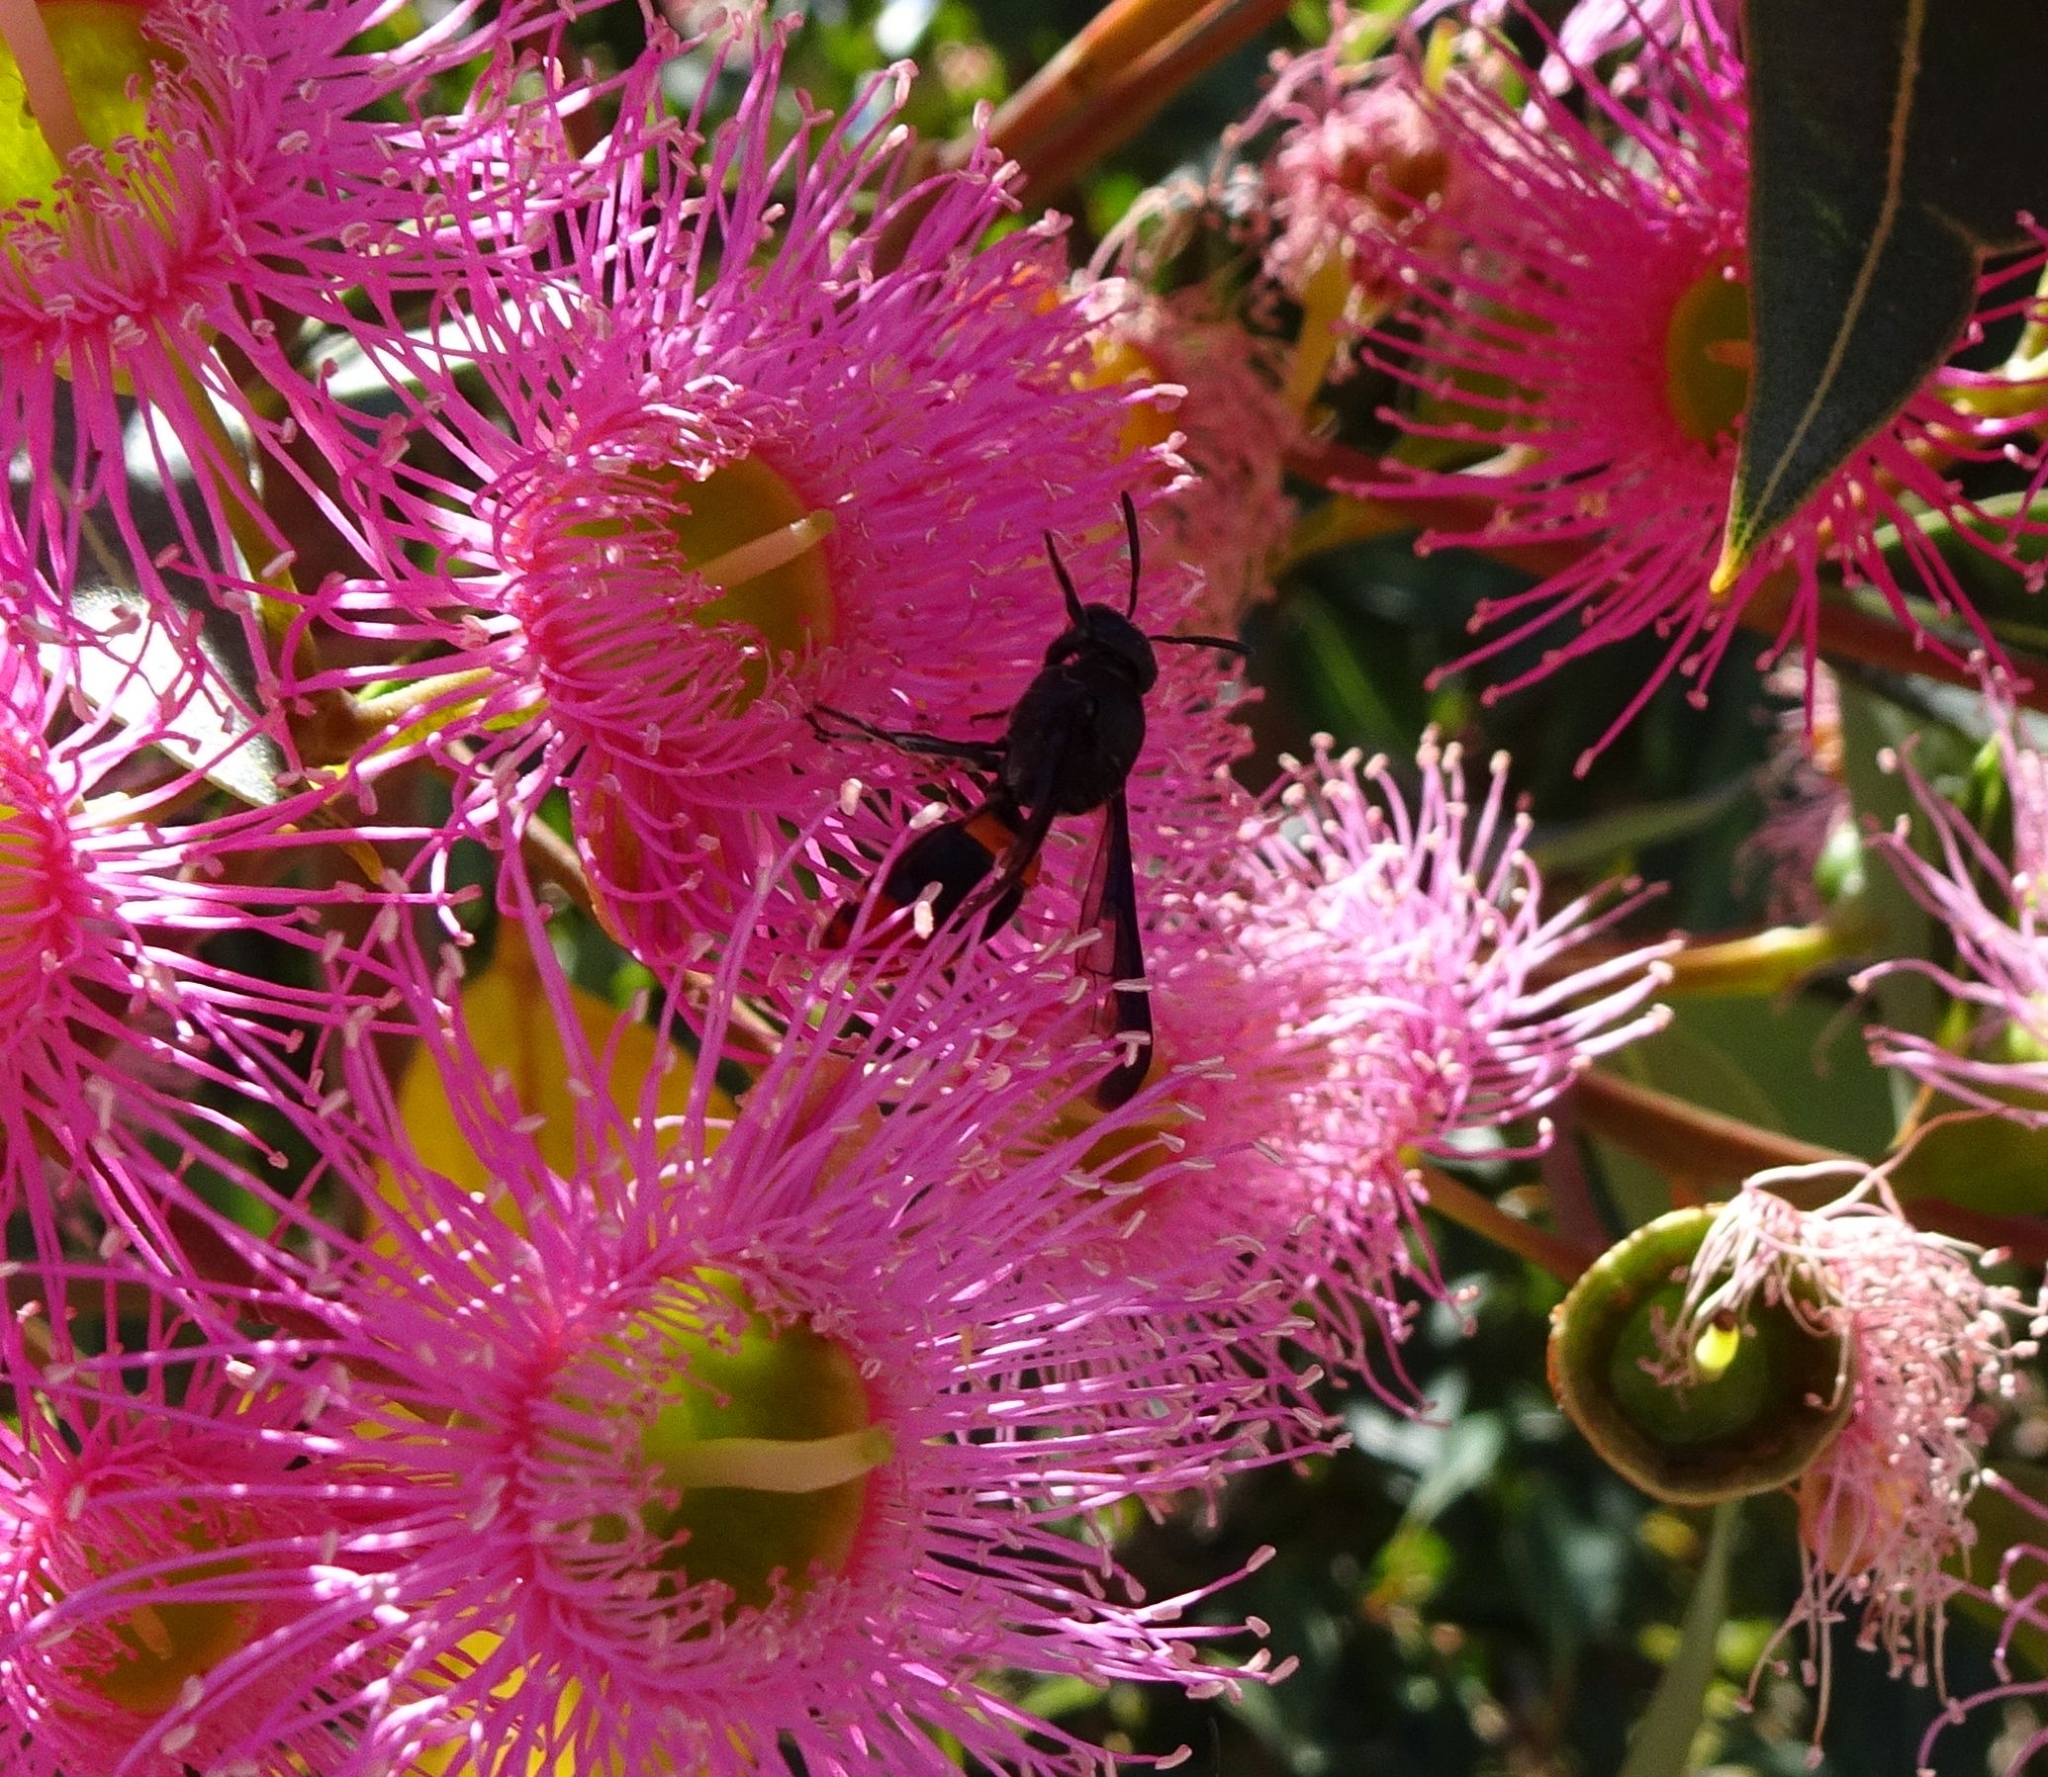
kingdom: Animalia
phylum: Arthropoda
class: Insecta
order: Hymenoptera
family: Colletidae
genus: Hyleoides
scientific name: Hyleoides concinna
